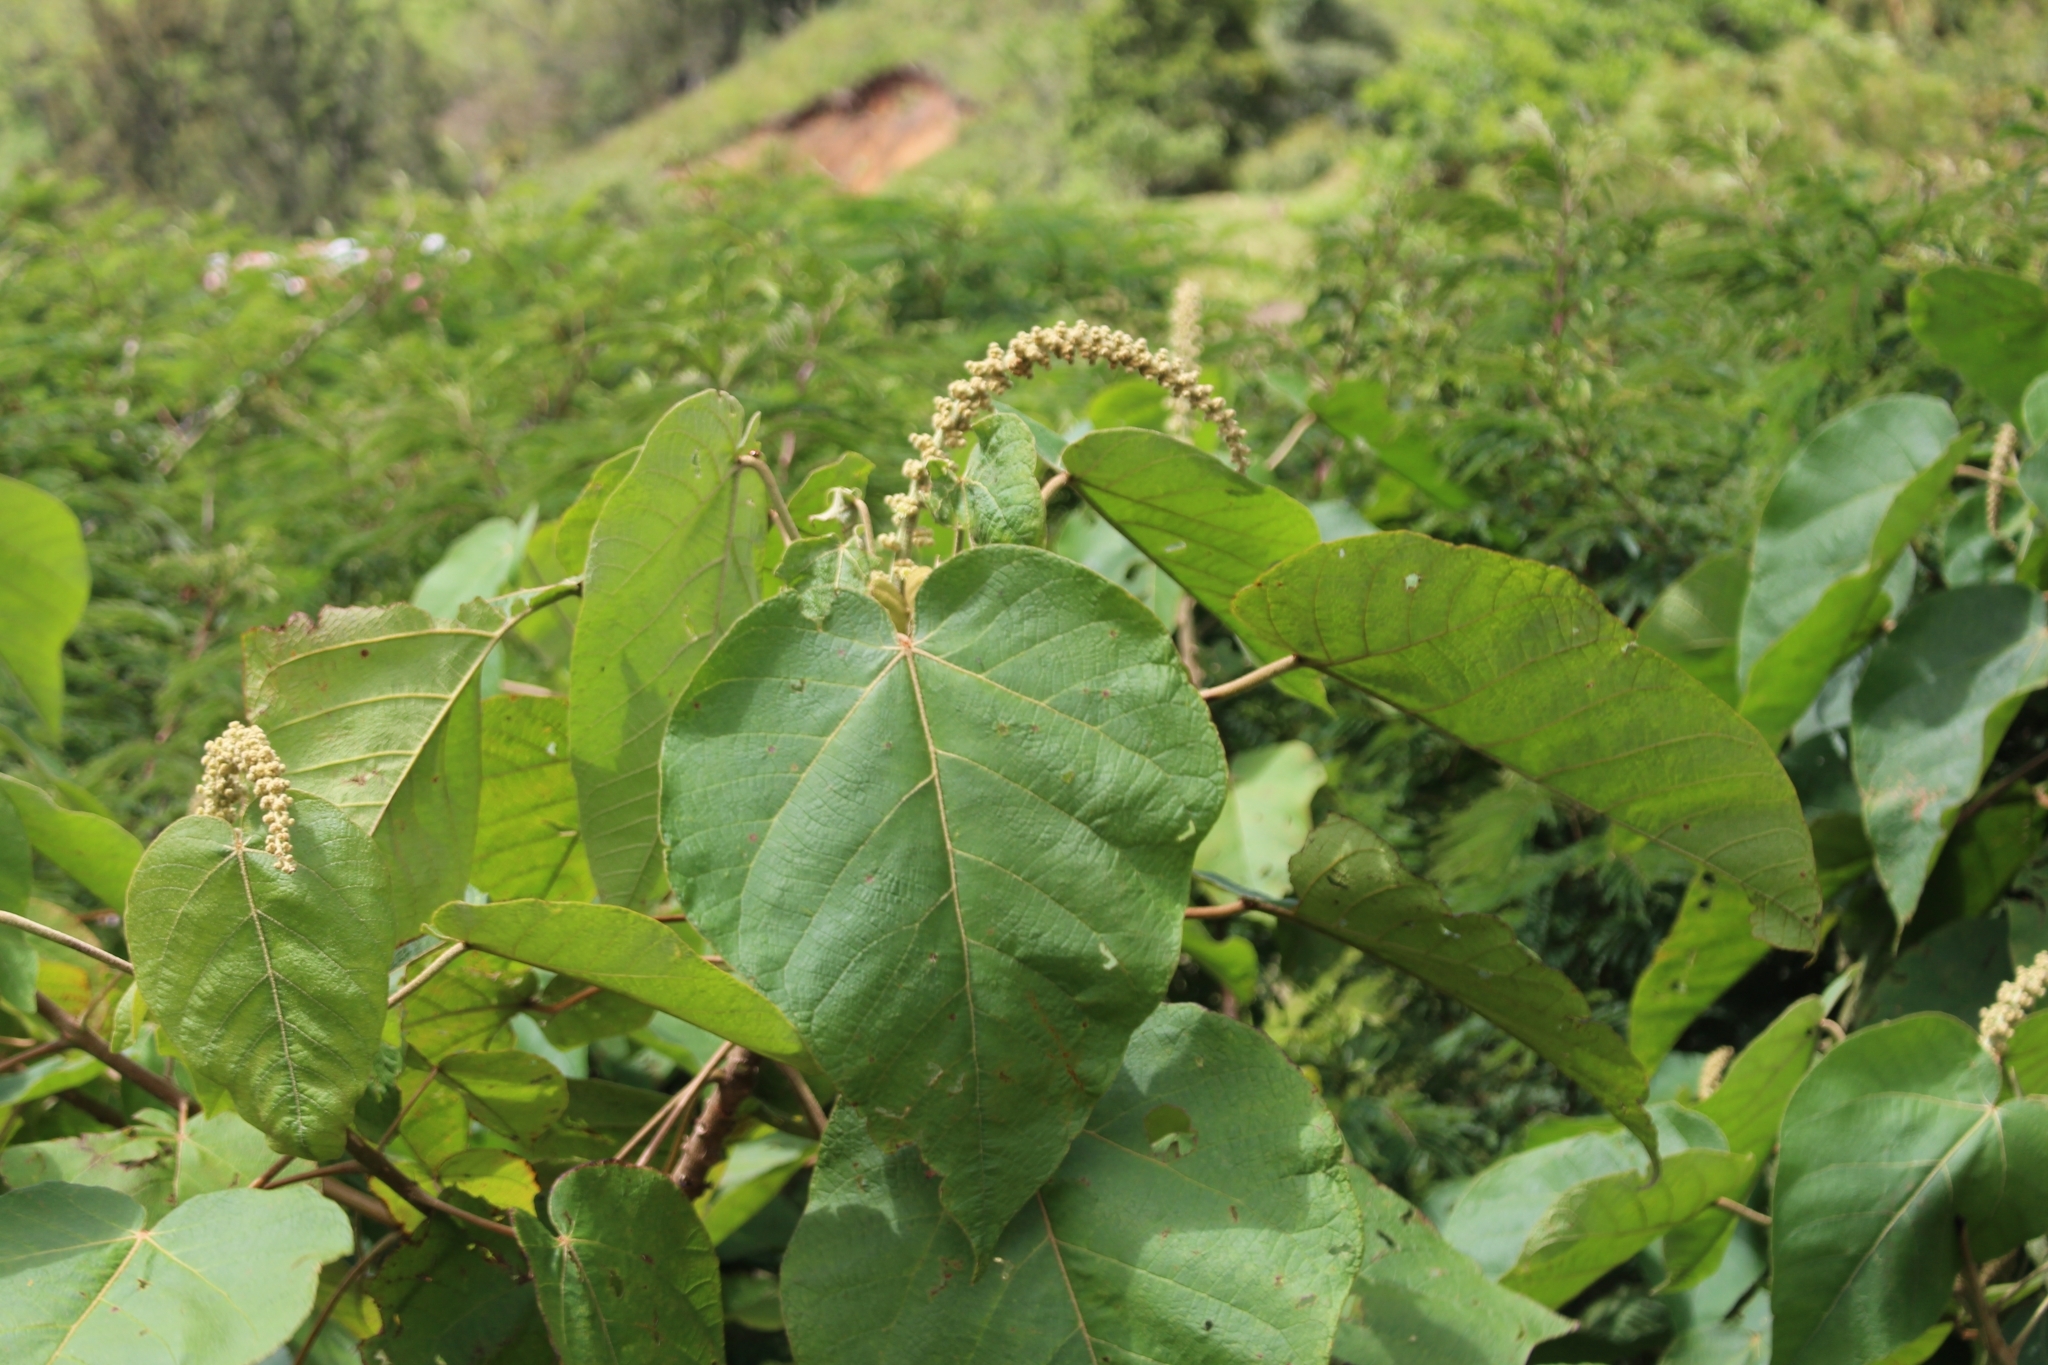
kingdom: Plantae
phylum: Tracheophyta
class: Magnoliopsida
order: Malpighiales
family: Euphorbiaceae
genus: Croton
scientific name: Croton draco
